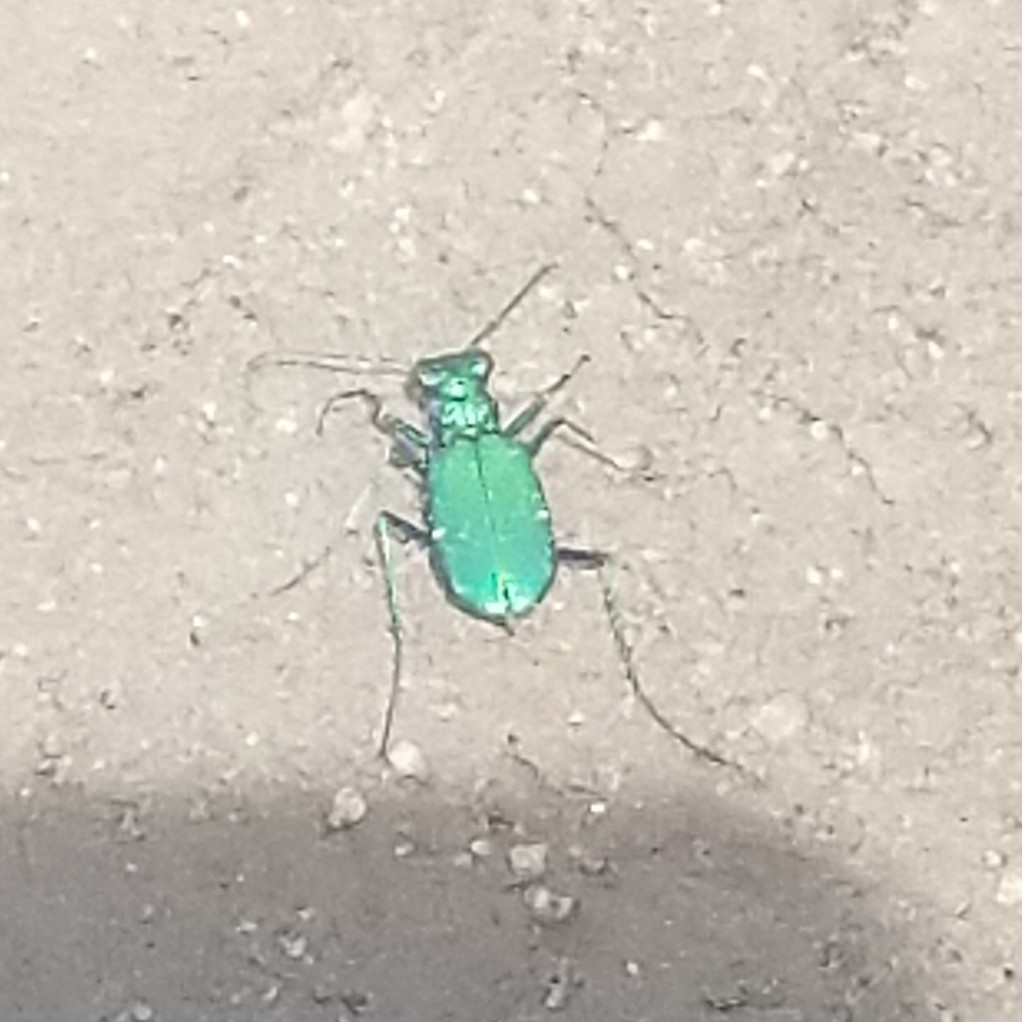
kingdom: Animalia
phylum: Arthropoda
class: Insecta
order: Coleoptera
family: Carabidae
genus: Cicindela
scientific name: Cicindela sexguttata
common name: Six-spotted tiger beetle
